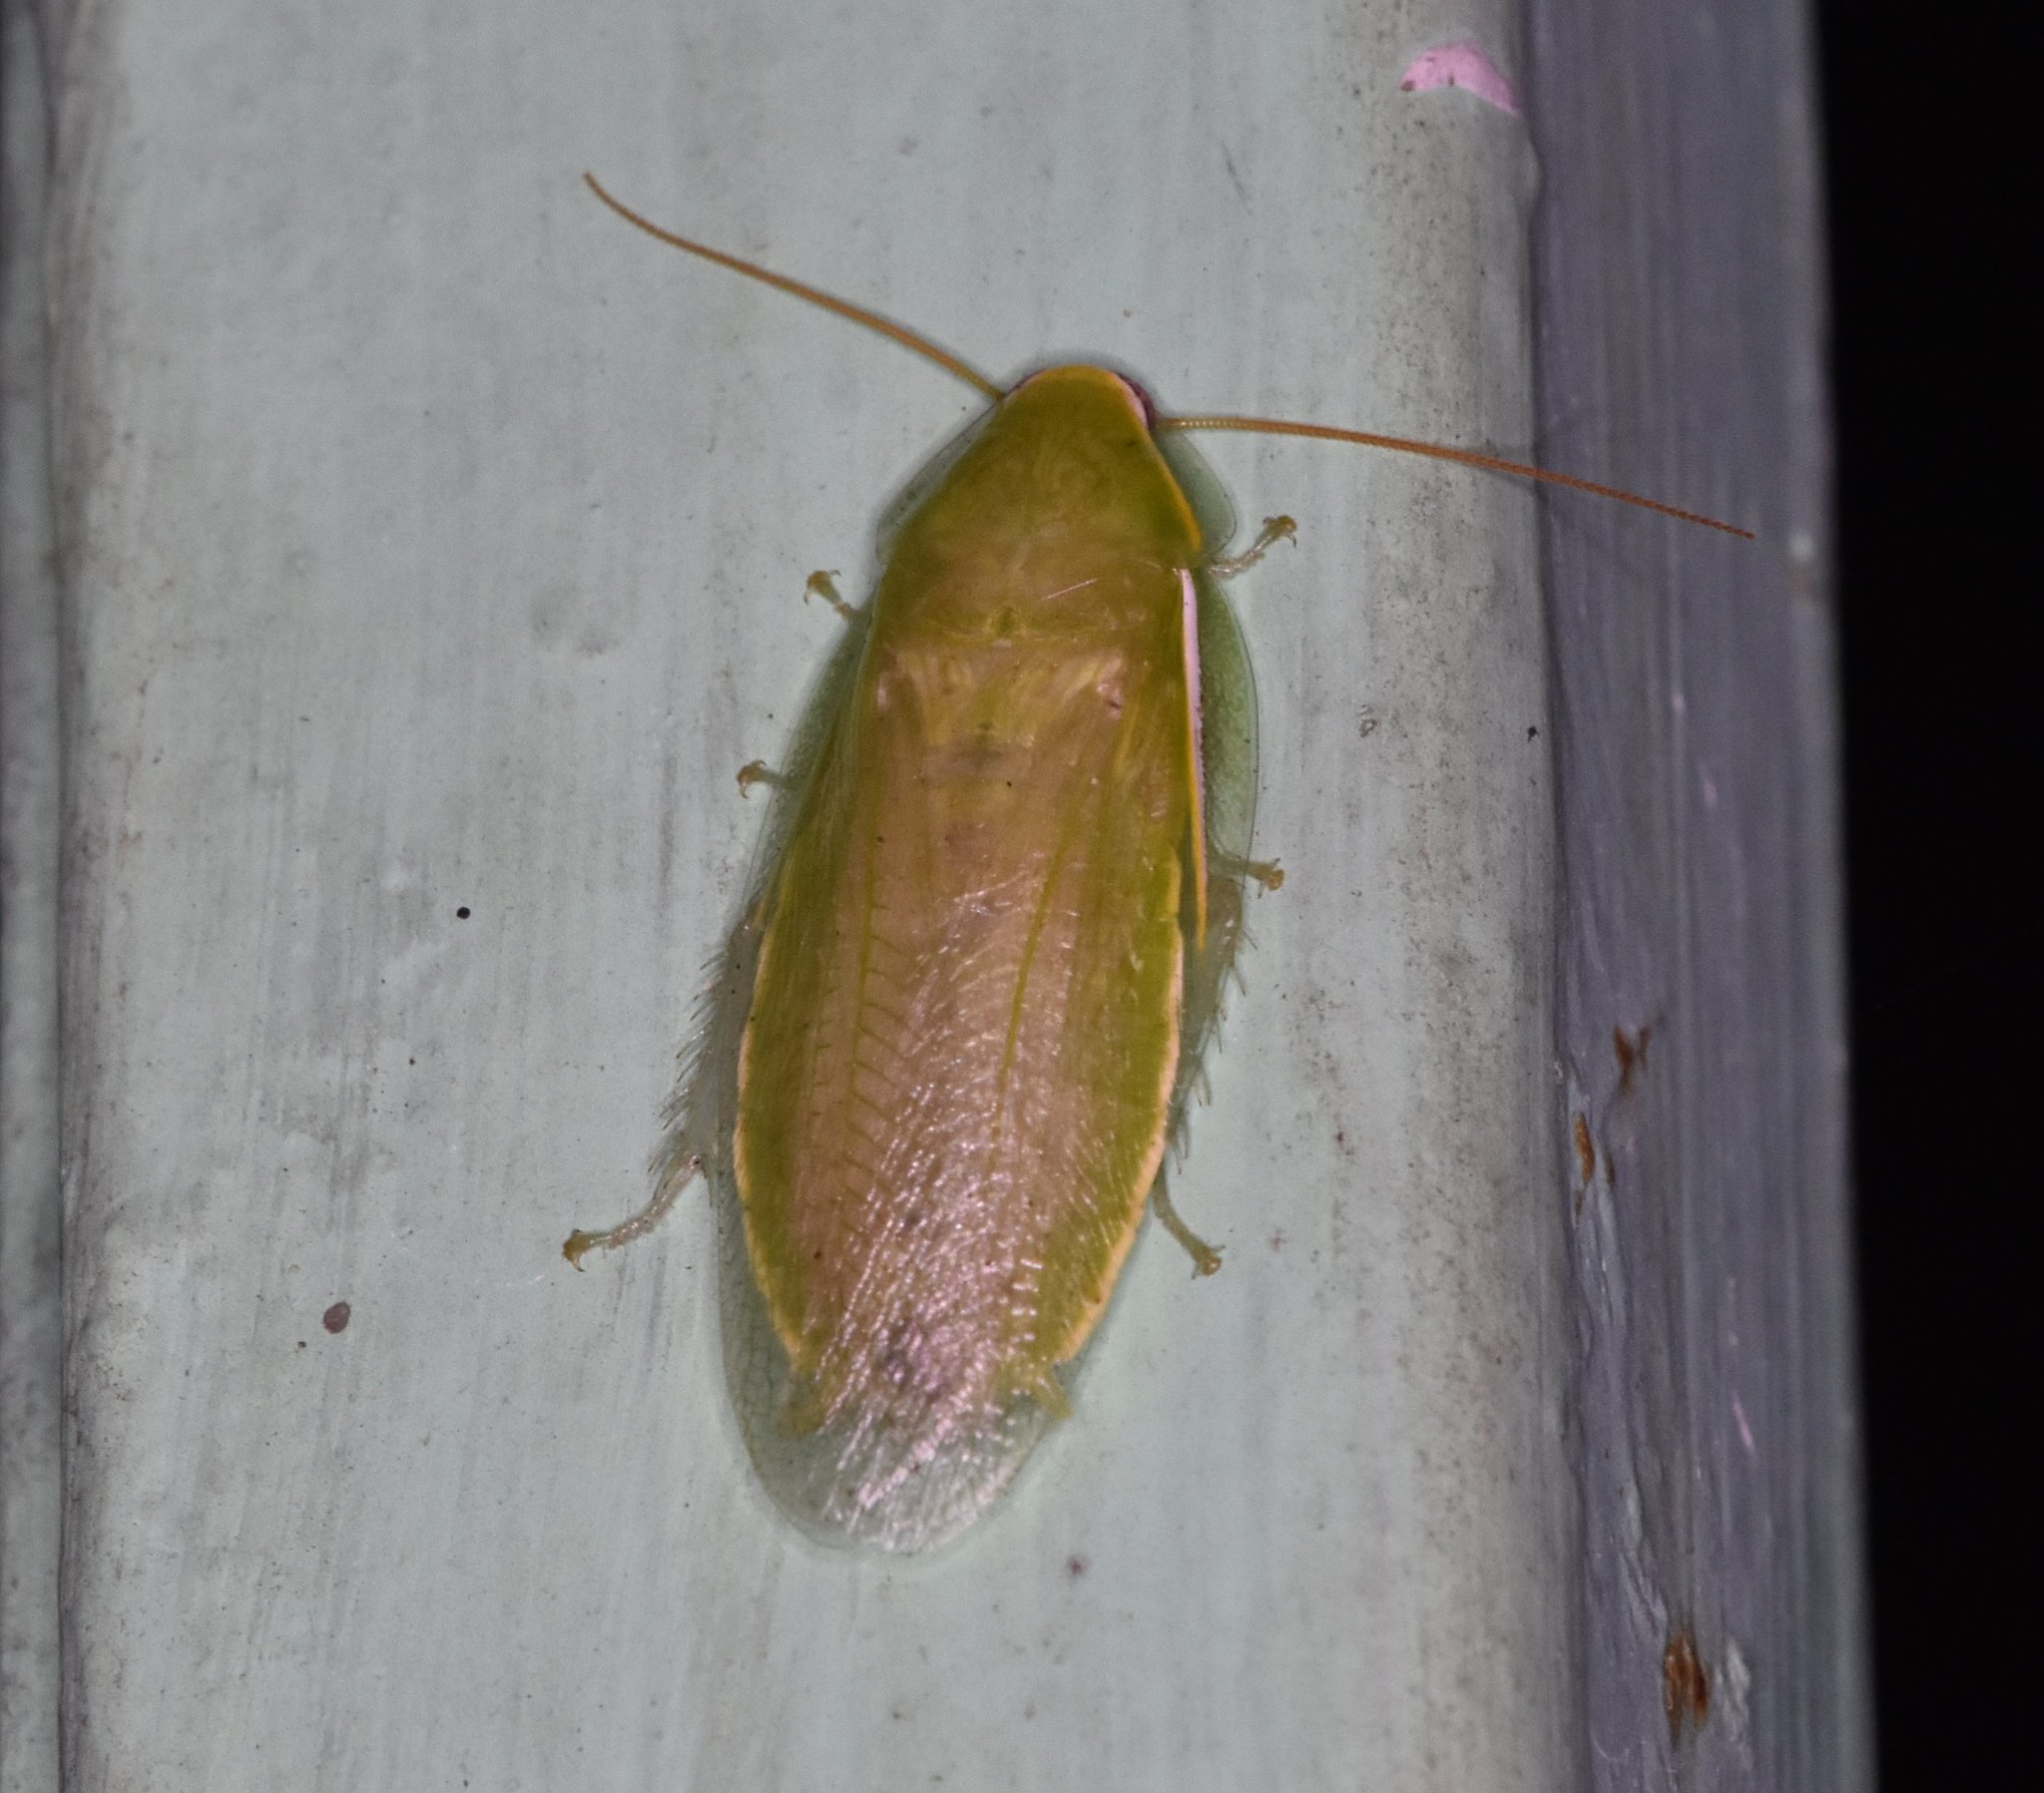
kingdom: Animalia
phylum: Arthropoda
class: Insecta
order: Blattodea
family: Blaberidae
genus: Panchlora
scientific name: Panchlora nivea
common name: Cuban cockroach
